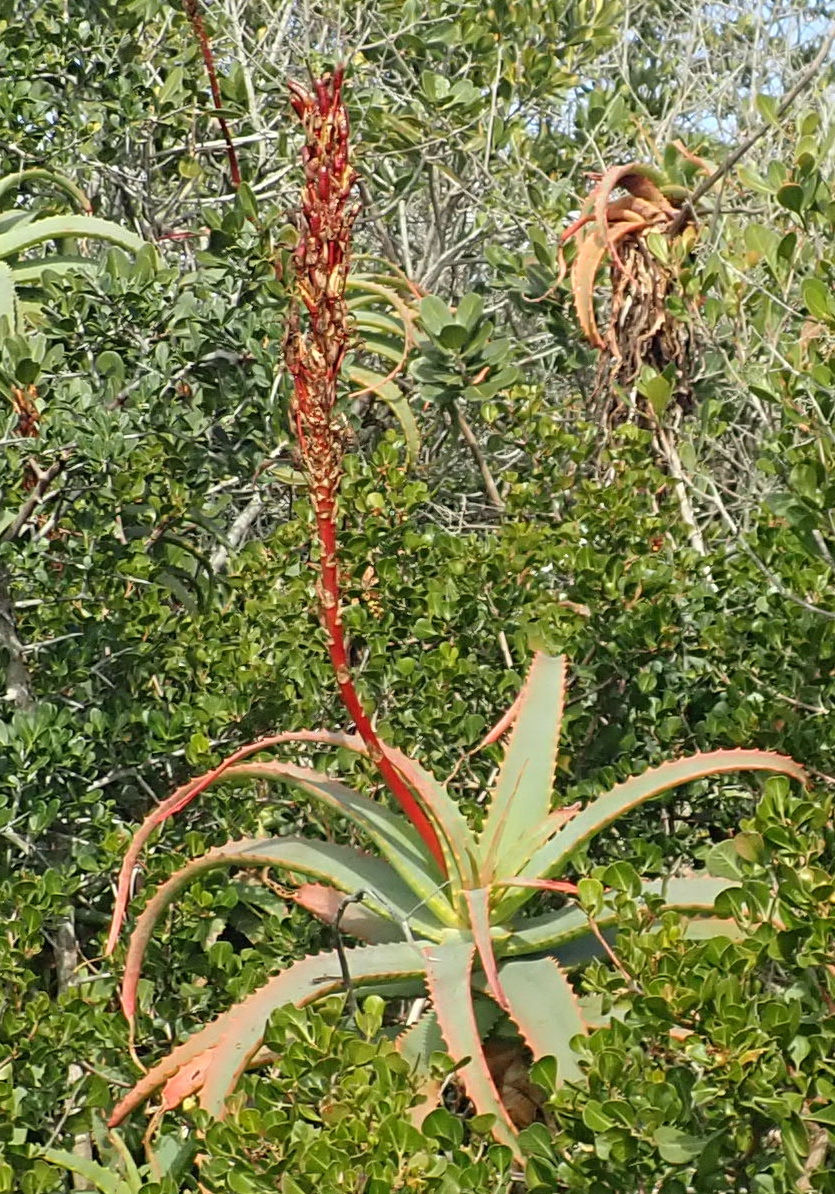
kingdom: Plantae
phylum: Tracheophyta
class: Liliopsida
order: Asparagales
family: Asphodelaceae
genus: Aloe
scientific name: Aloe arborescens
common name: Candelabra aloe
